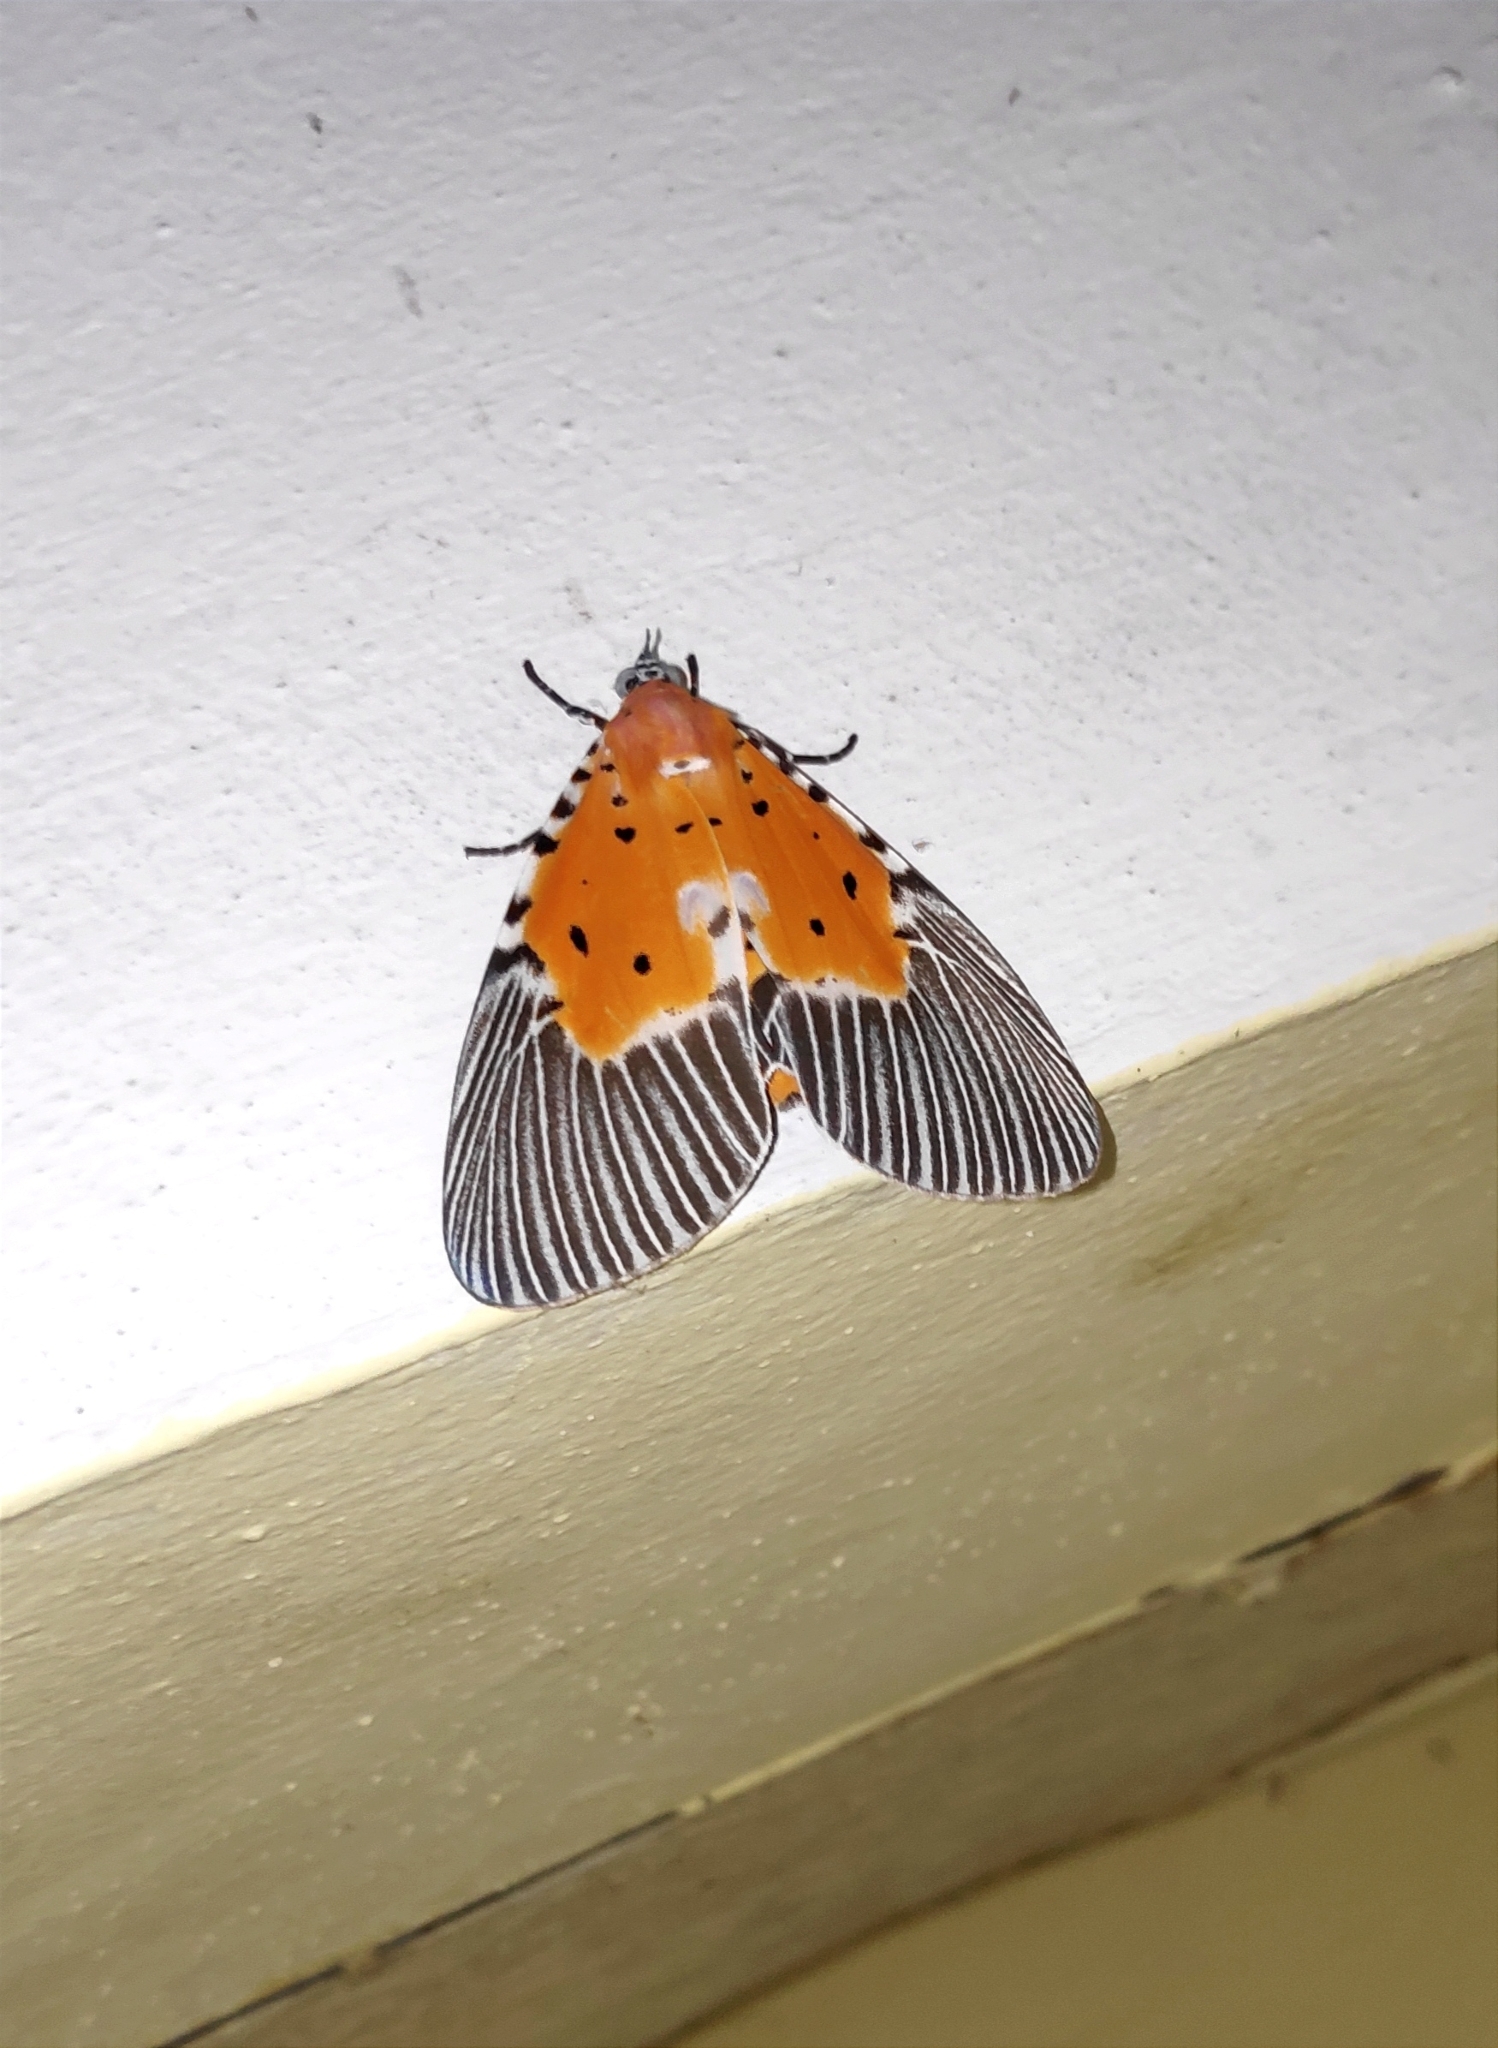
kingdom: Animalia
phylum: Arthropoda
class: Insecta
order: Lepidoptera
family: Erebidae
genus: Peridrome
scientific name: Peridrome orbicularis
